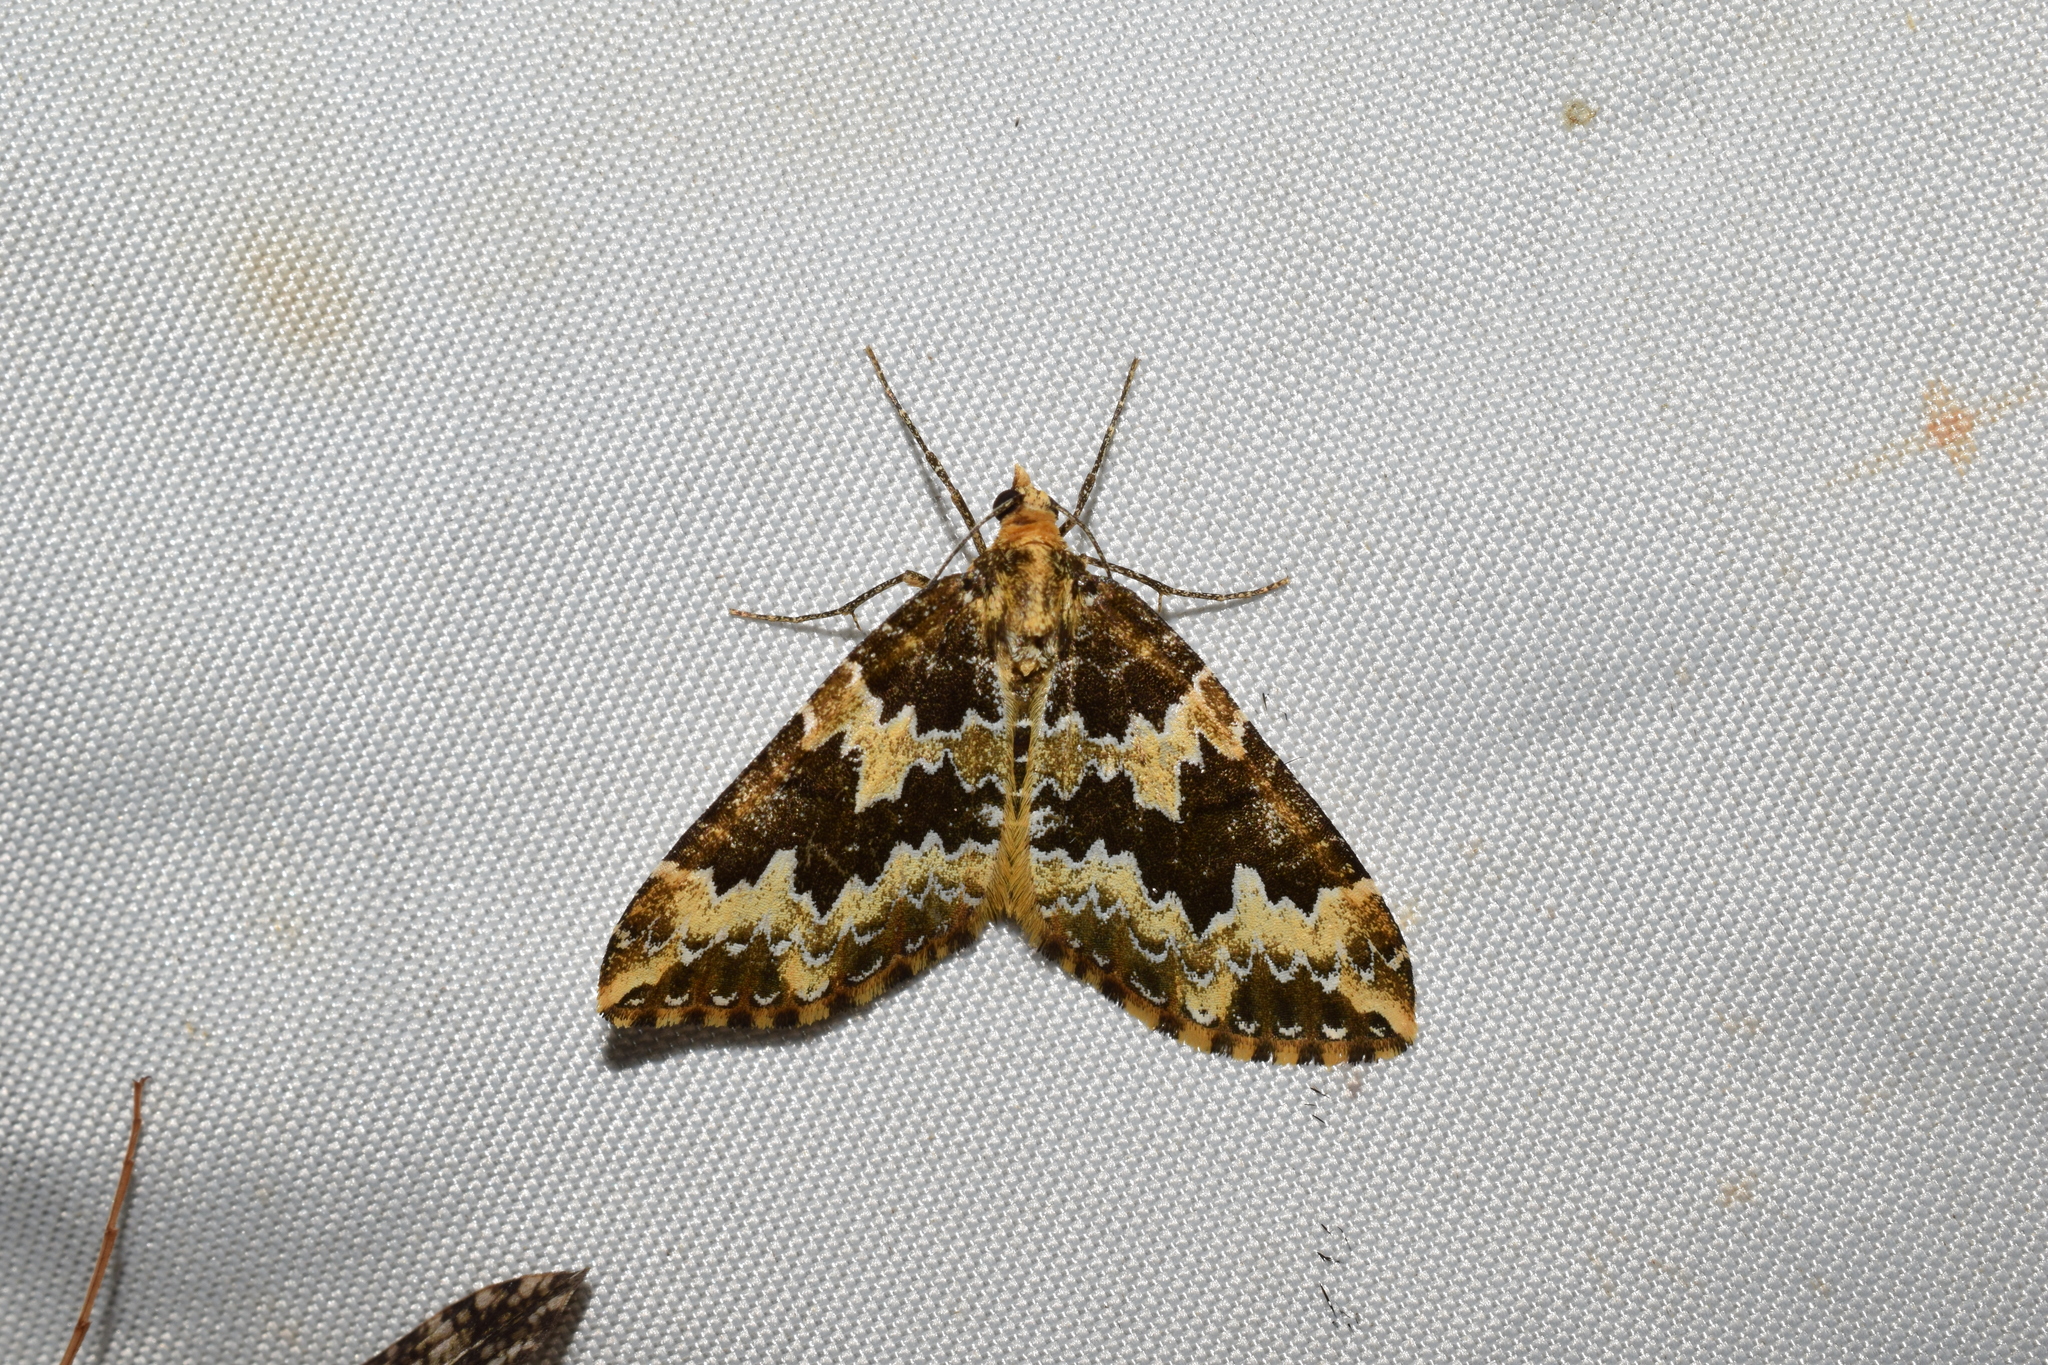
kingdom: Animalia
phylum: Arthropoda
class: Insecta
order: Lepidoptera
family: Geometridae
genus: Electrophaes
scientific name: Electrophaes recens
